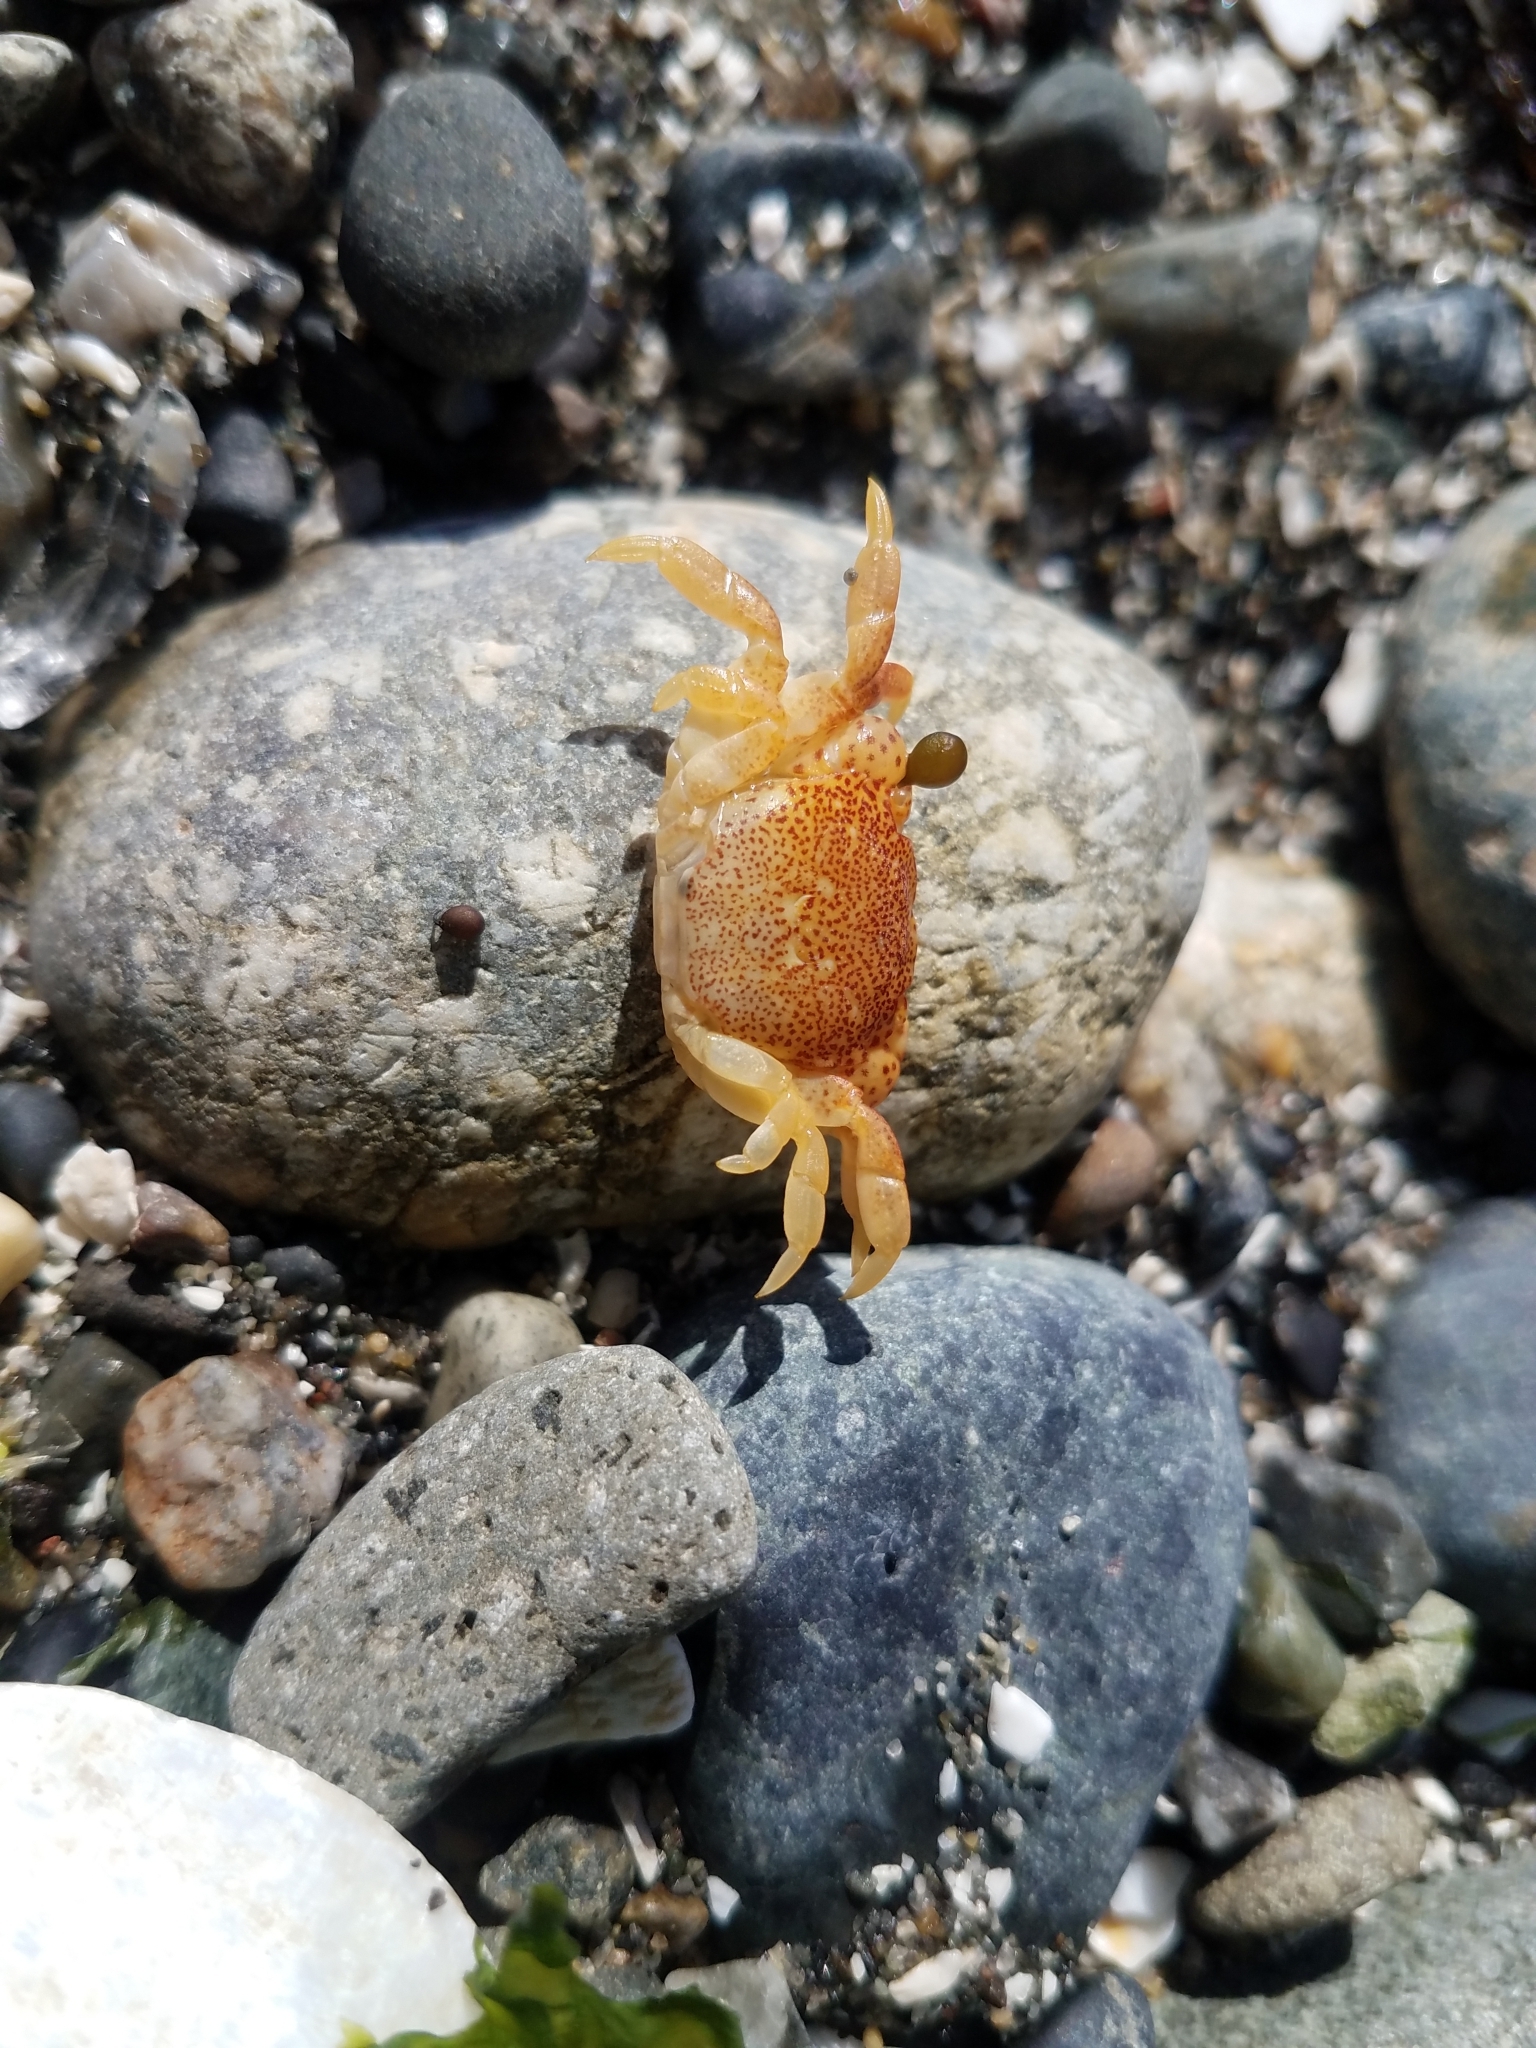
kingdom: Animalia
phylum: Arthropoda
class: Malacostraca
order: Decapoda
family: Varunidae
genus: Hemigrapsus
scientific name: Hemigrapsus nudus
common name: Purple shore crab
